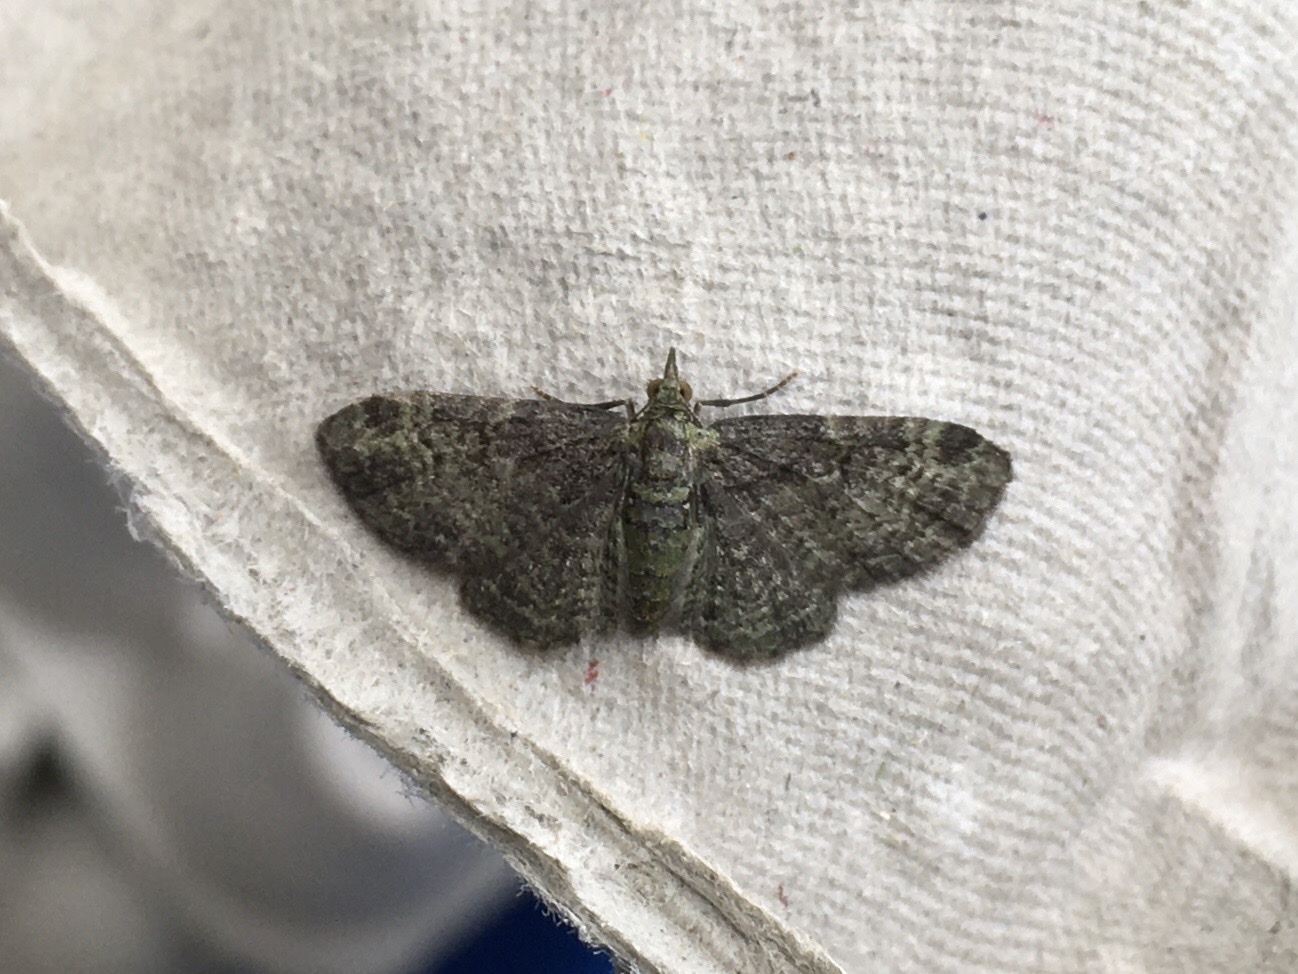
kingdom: Animalia
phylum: Arthropoda
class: Insecta
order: Lepidoptera
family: Geometridae
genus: Pasiphila
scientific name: Pasiphila rectangulata
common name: Green pug
